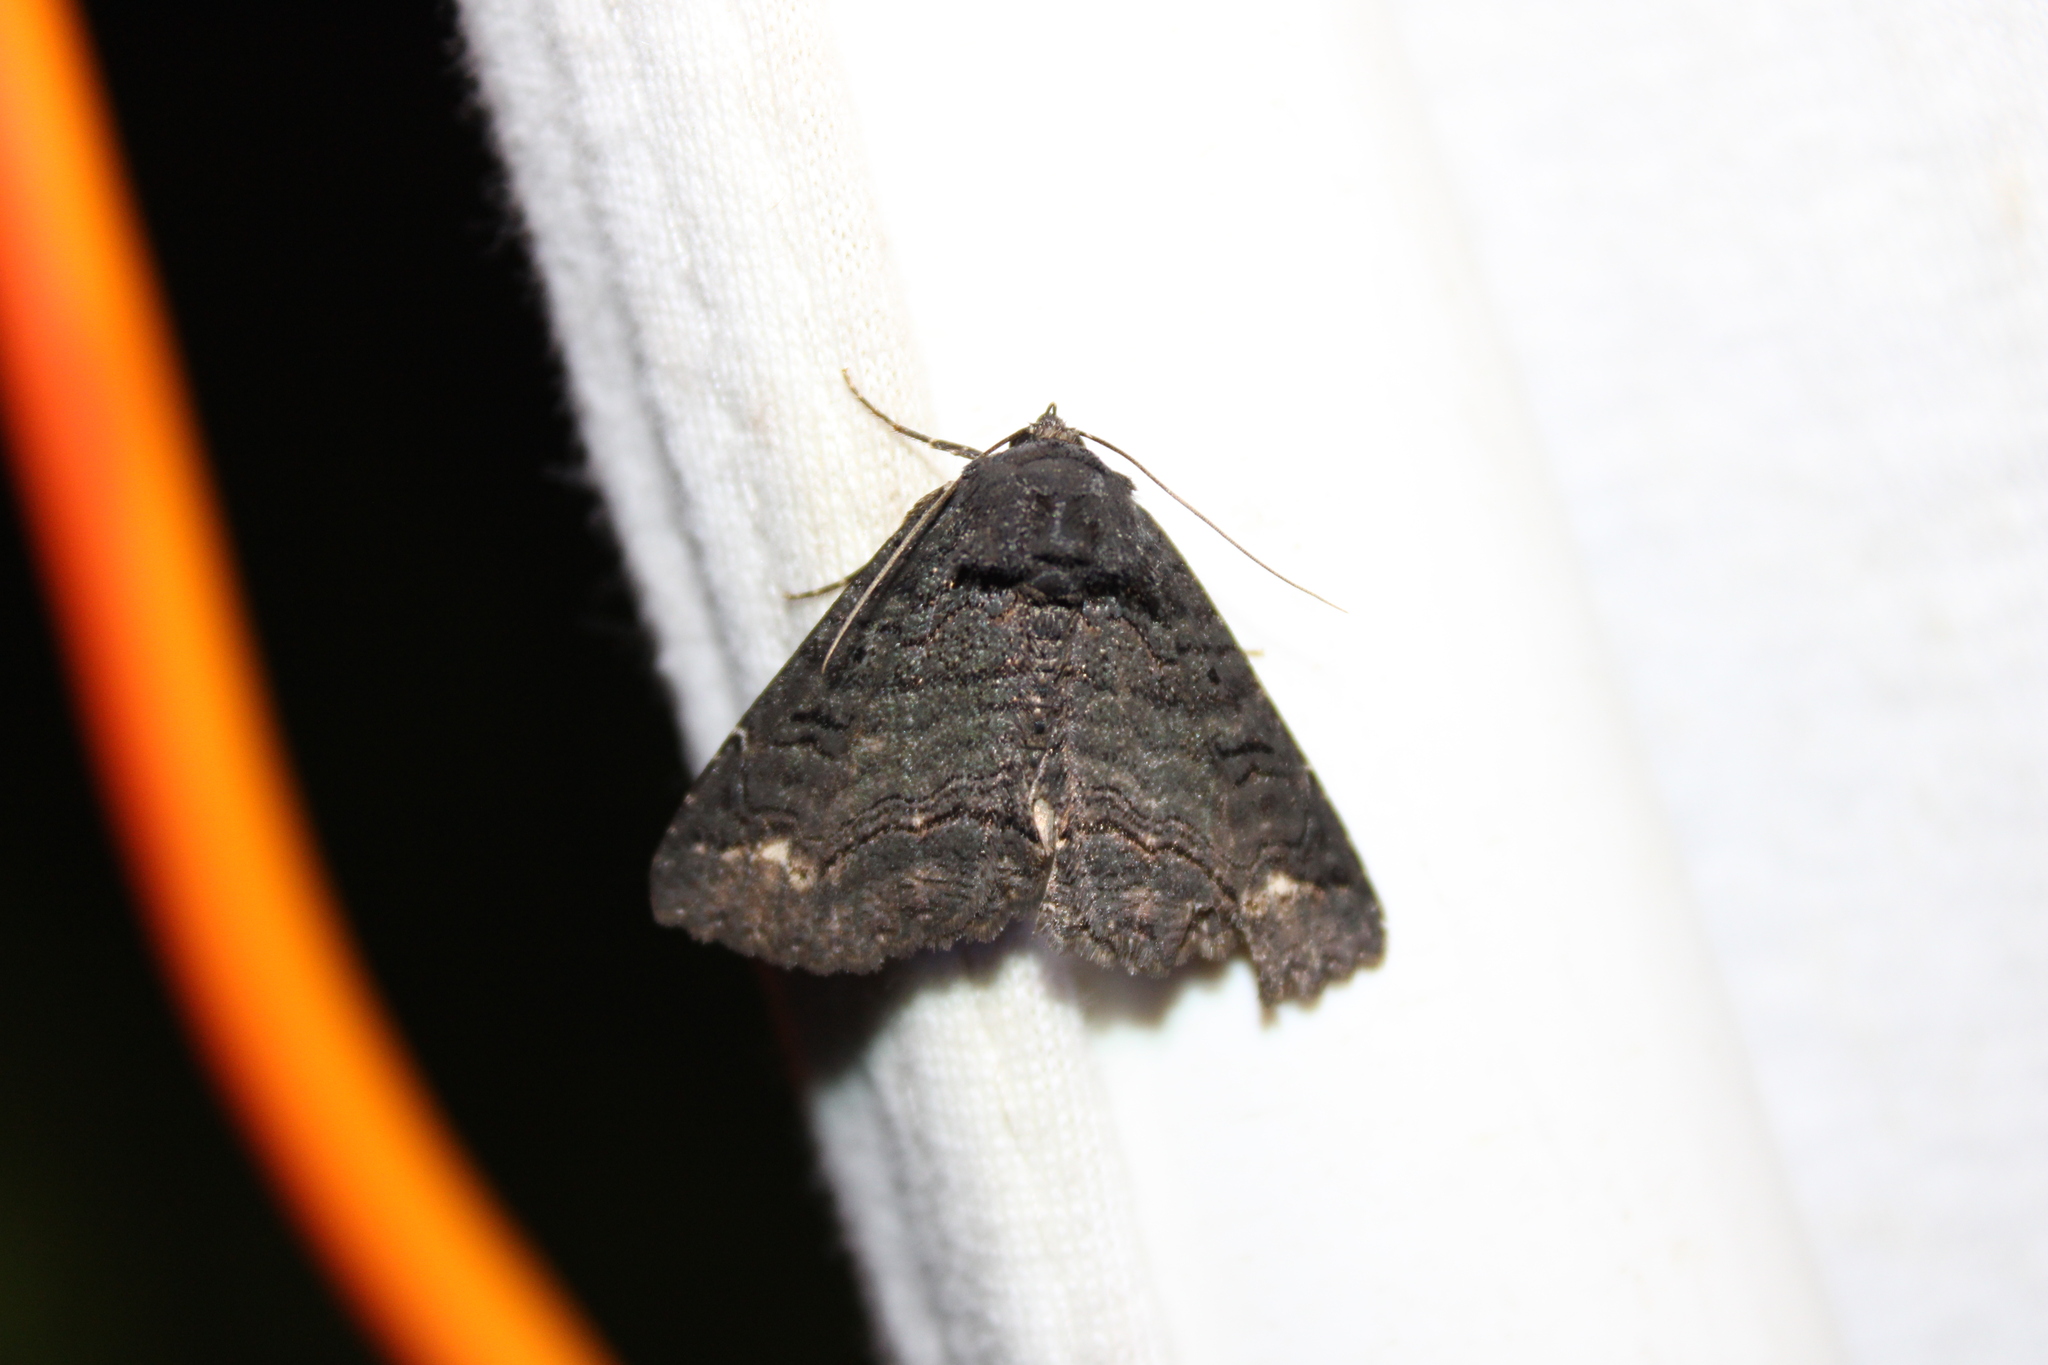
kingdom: Animalia
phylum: Arthropoda
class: Insecta
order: Lepidoptera
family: Erebidae
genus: Zale
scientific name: Zale undularis
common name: Black zale moth
